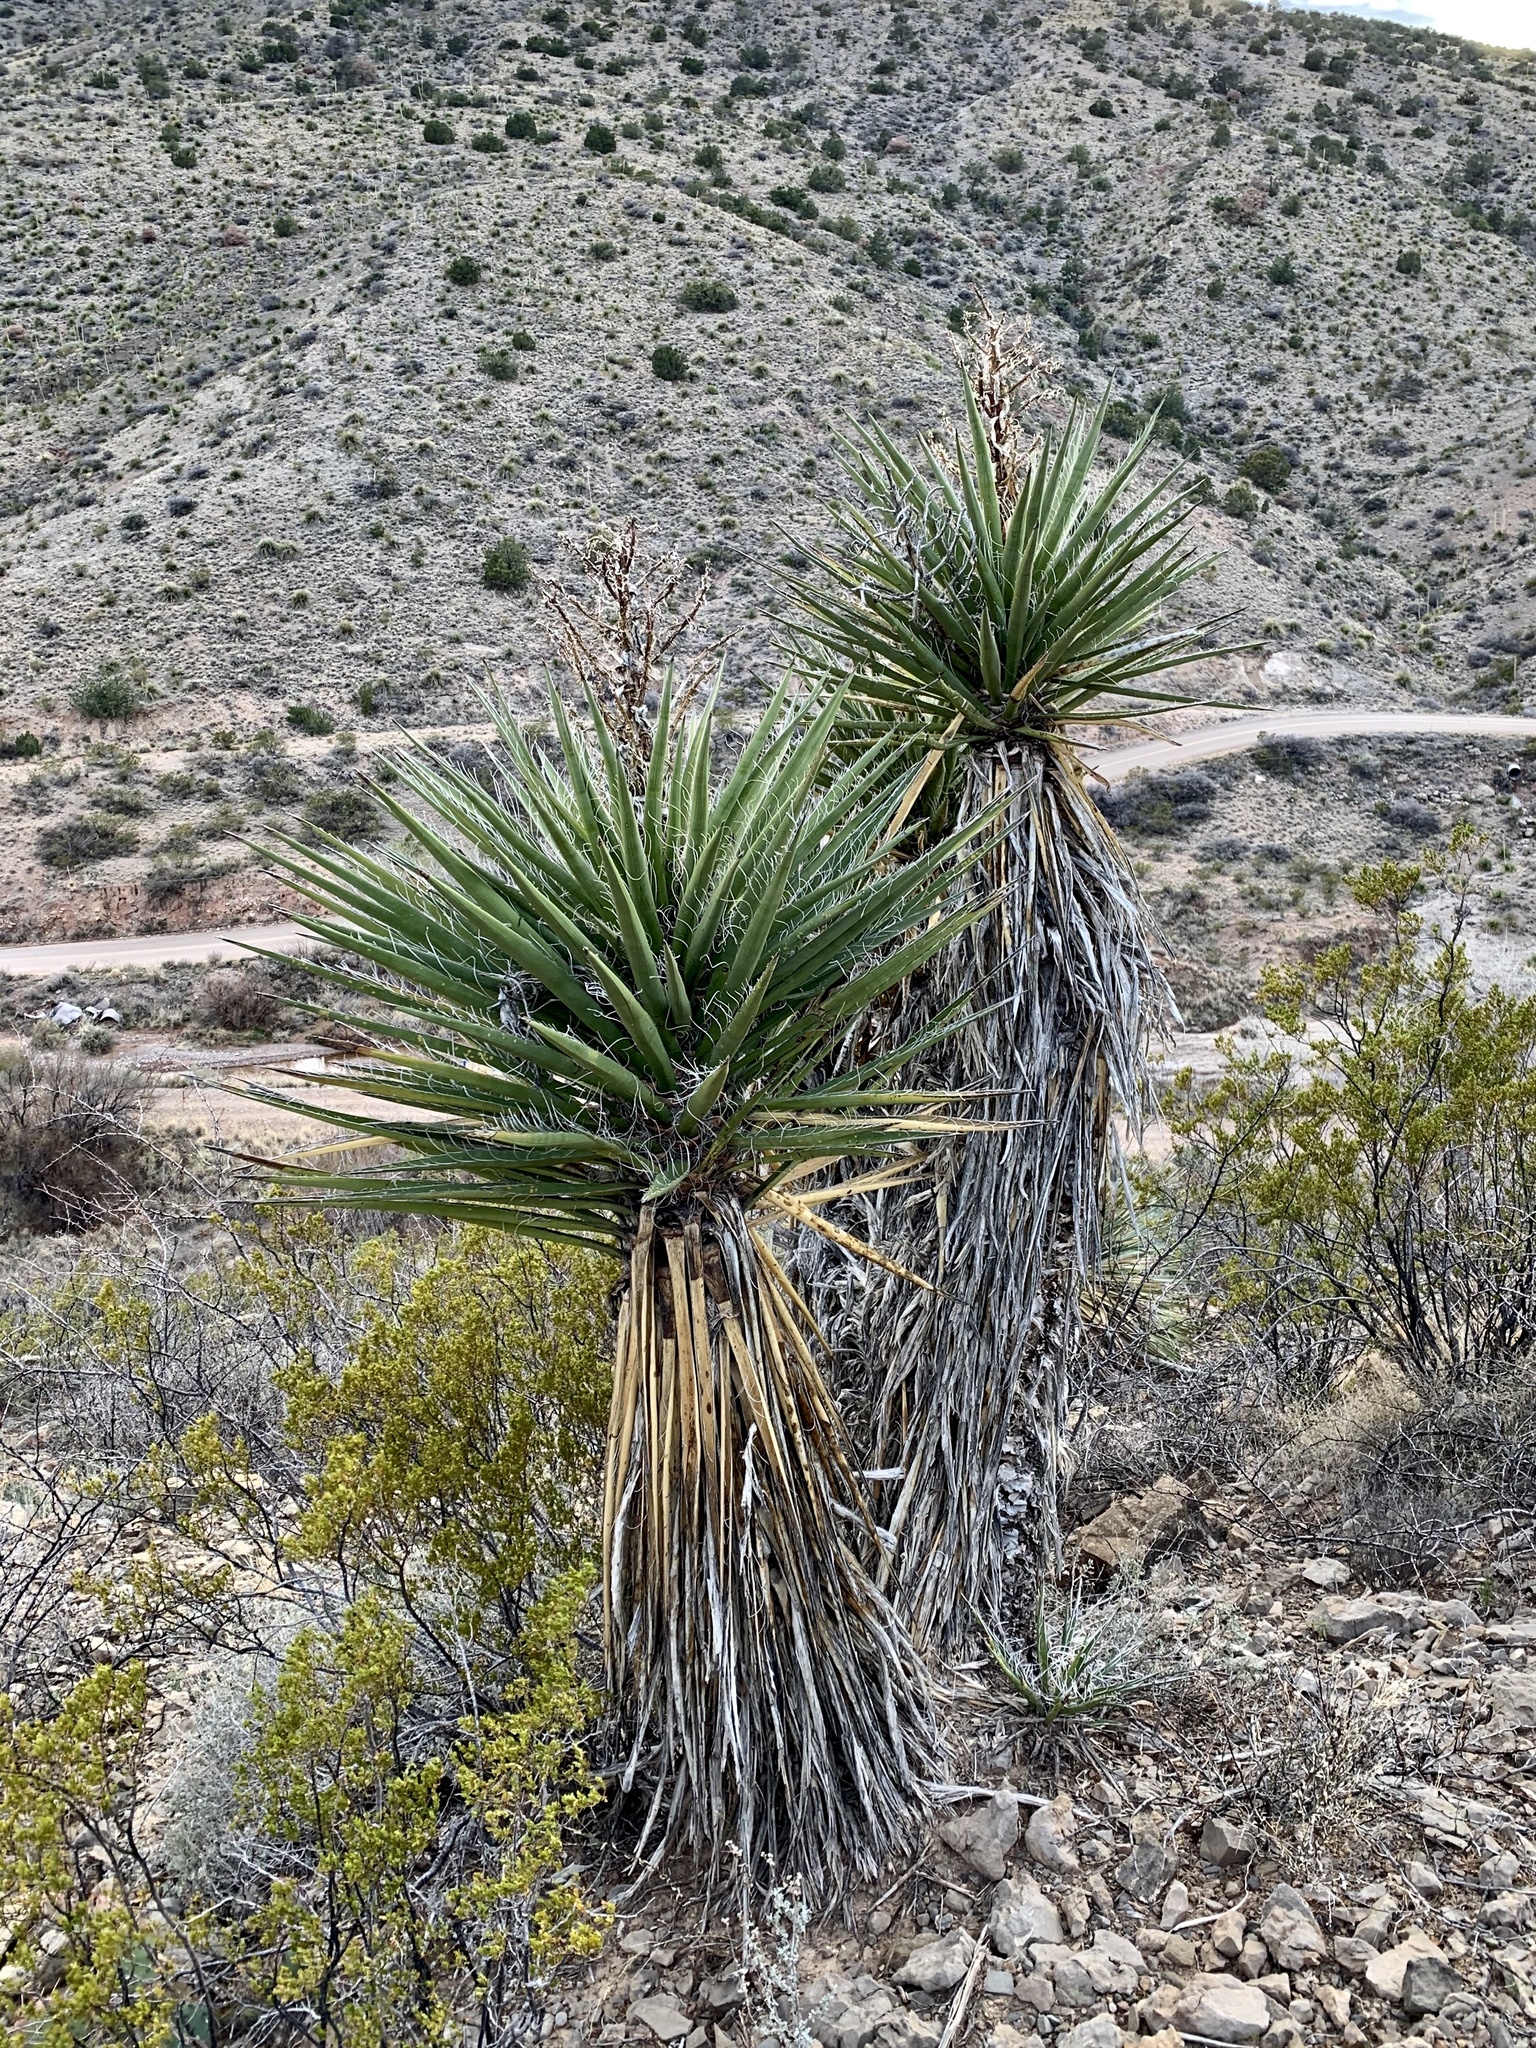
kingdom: Plantae
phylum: Tracheophyta
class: Liliopsida
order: Asparagales
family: Asparagaceae
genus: Yucca
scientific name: Yucca treculiana
